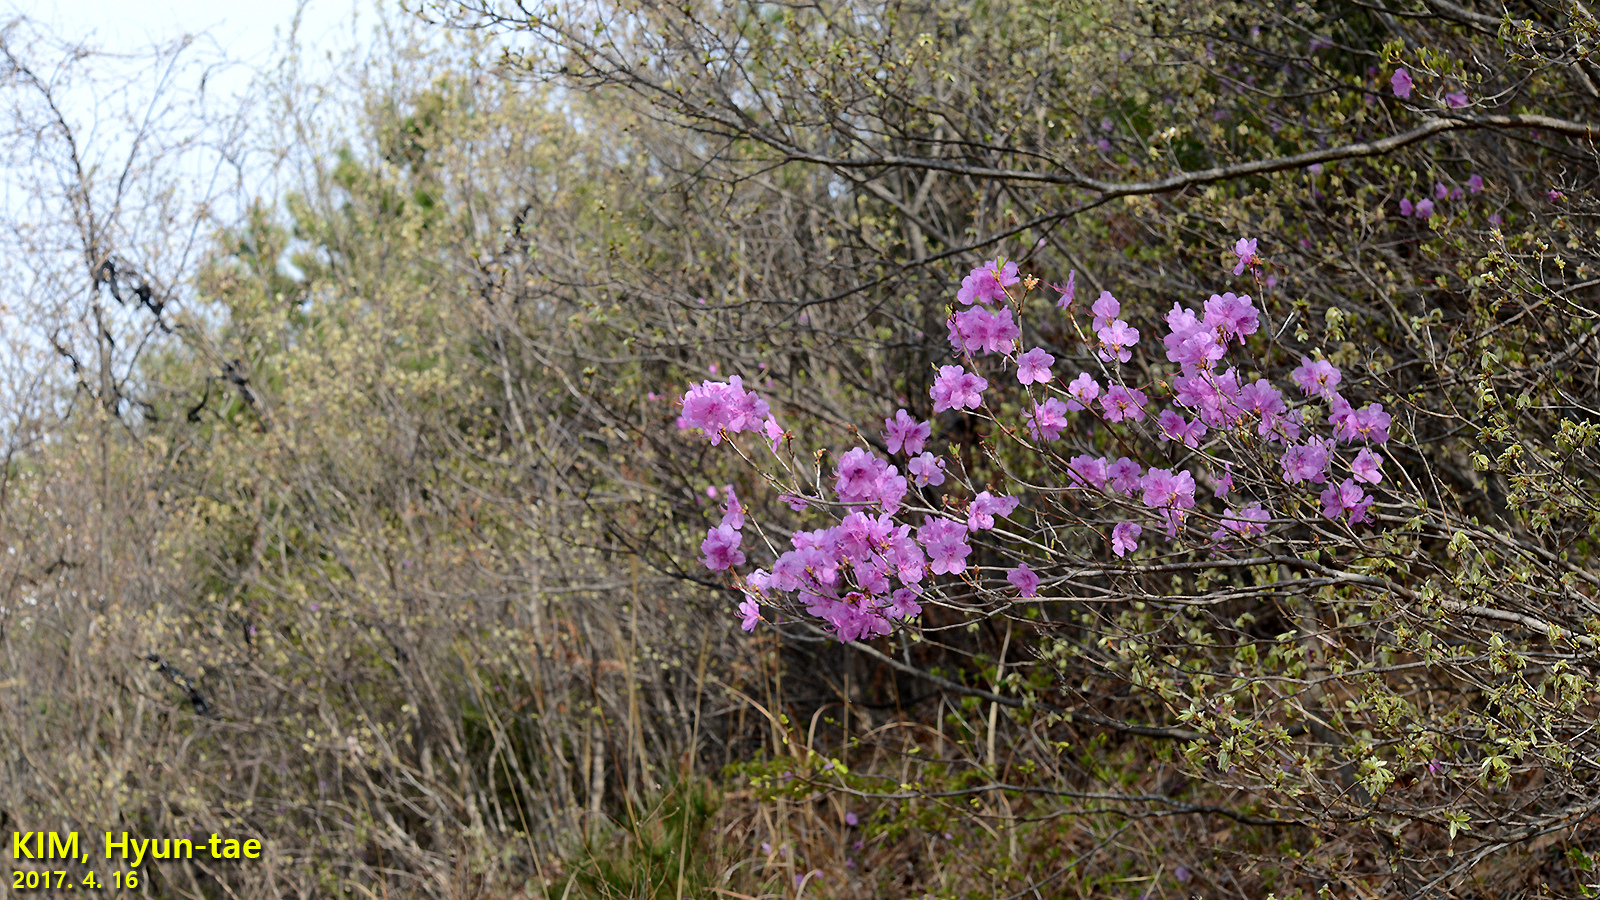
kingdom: Plantae
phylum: Tracheophyta
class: Magnoliopsida
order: Ericales
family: Ericaceae
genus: Rhododendron
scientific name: Rhododendron mucronulatum
